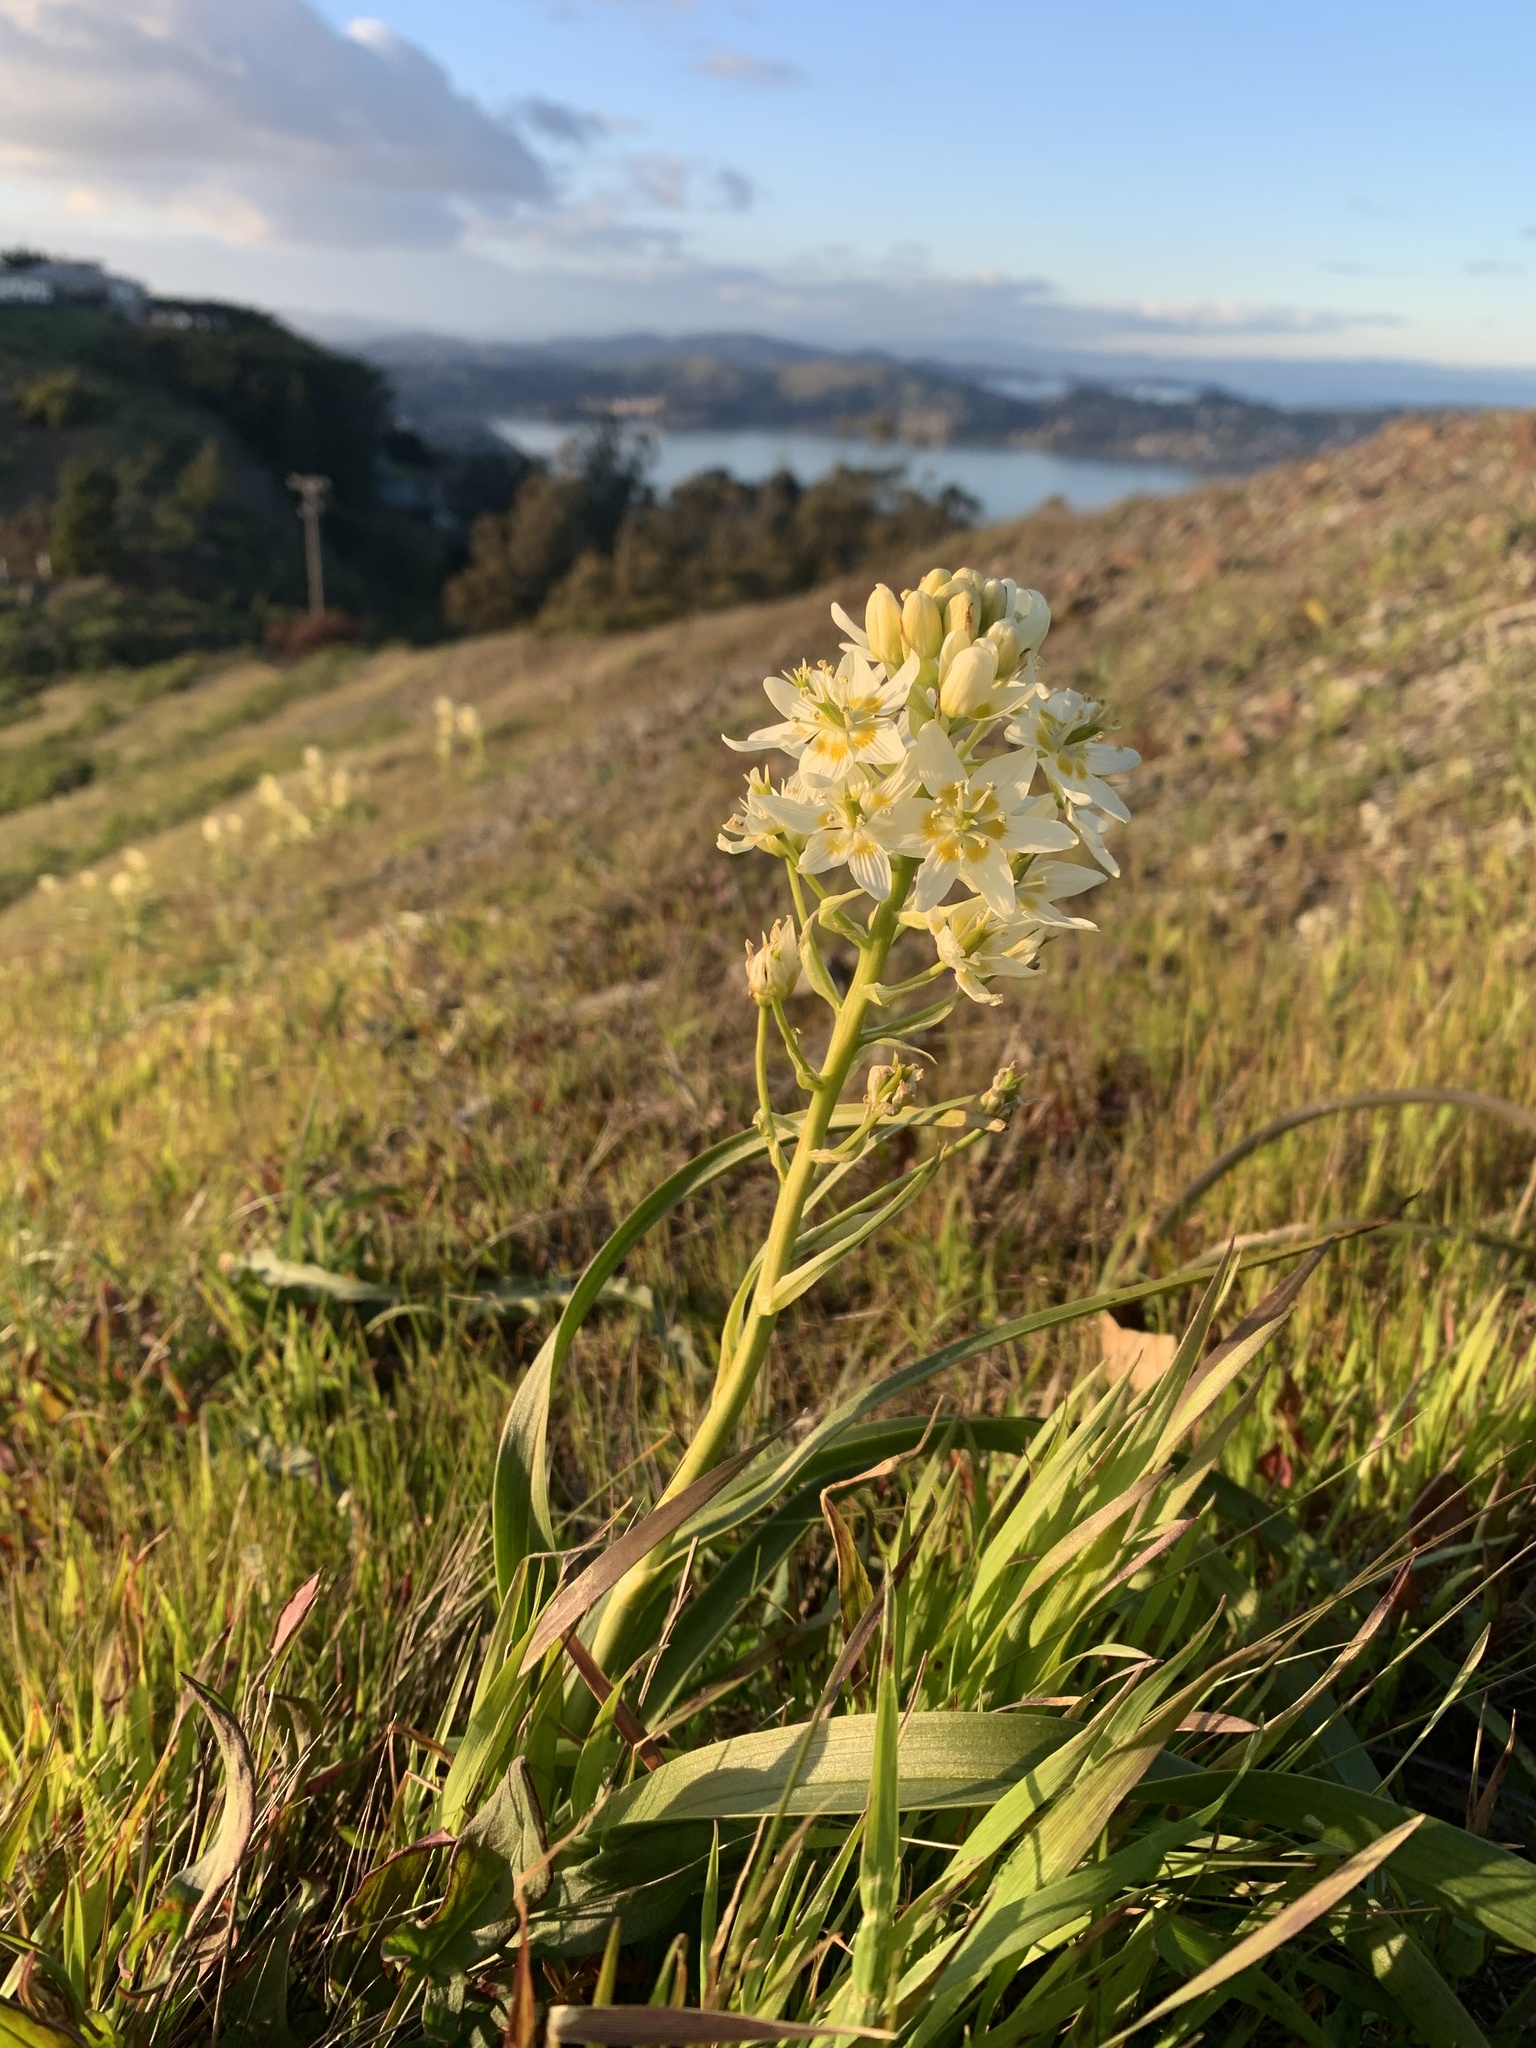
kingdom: Plantae
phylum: Tracheophyta
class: Liliopsida
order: Liliales
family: Melanthiaceae
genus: Toxicoscordion
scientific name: Toxicoscordion fremontii
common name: Fremont's death camas
